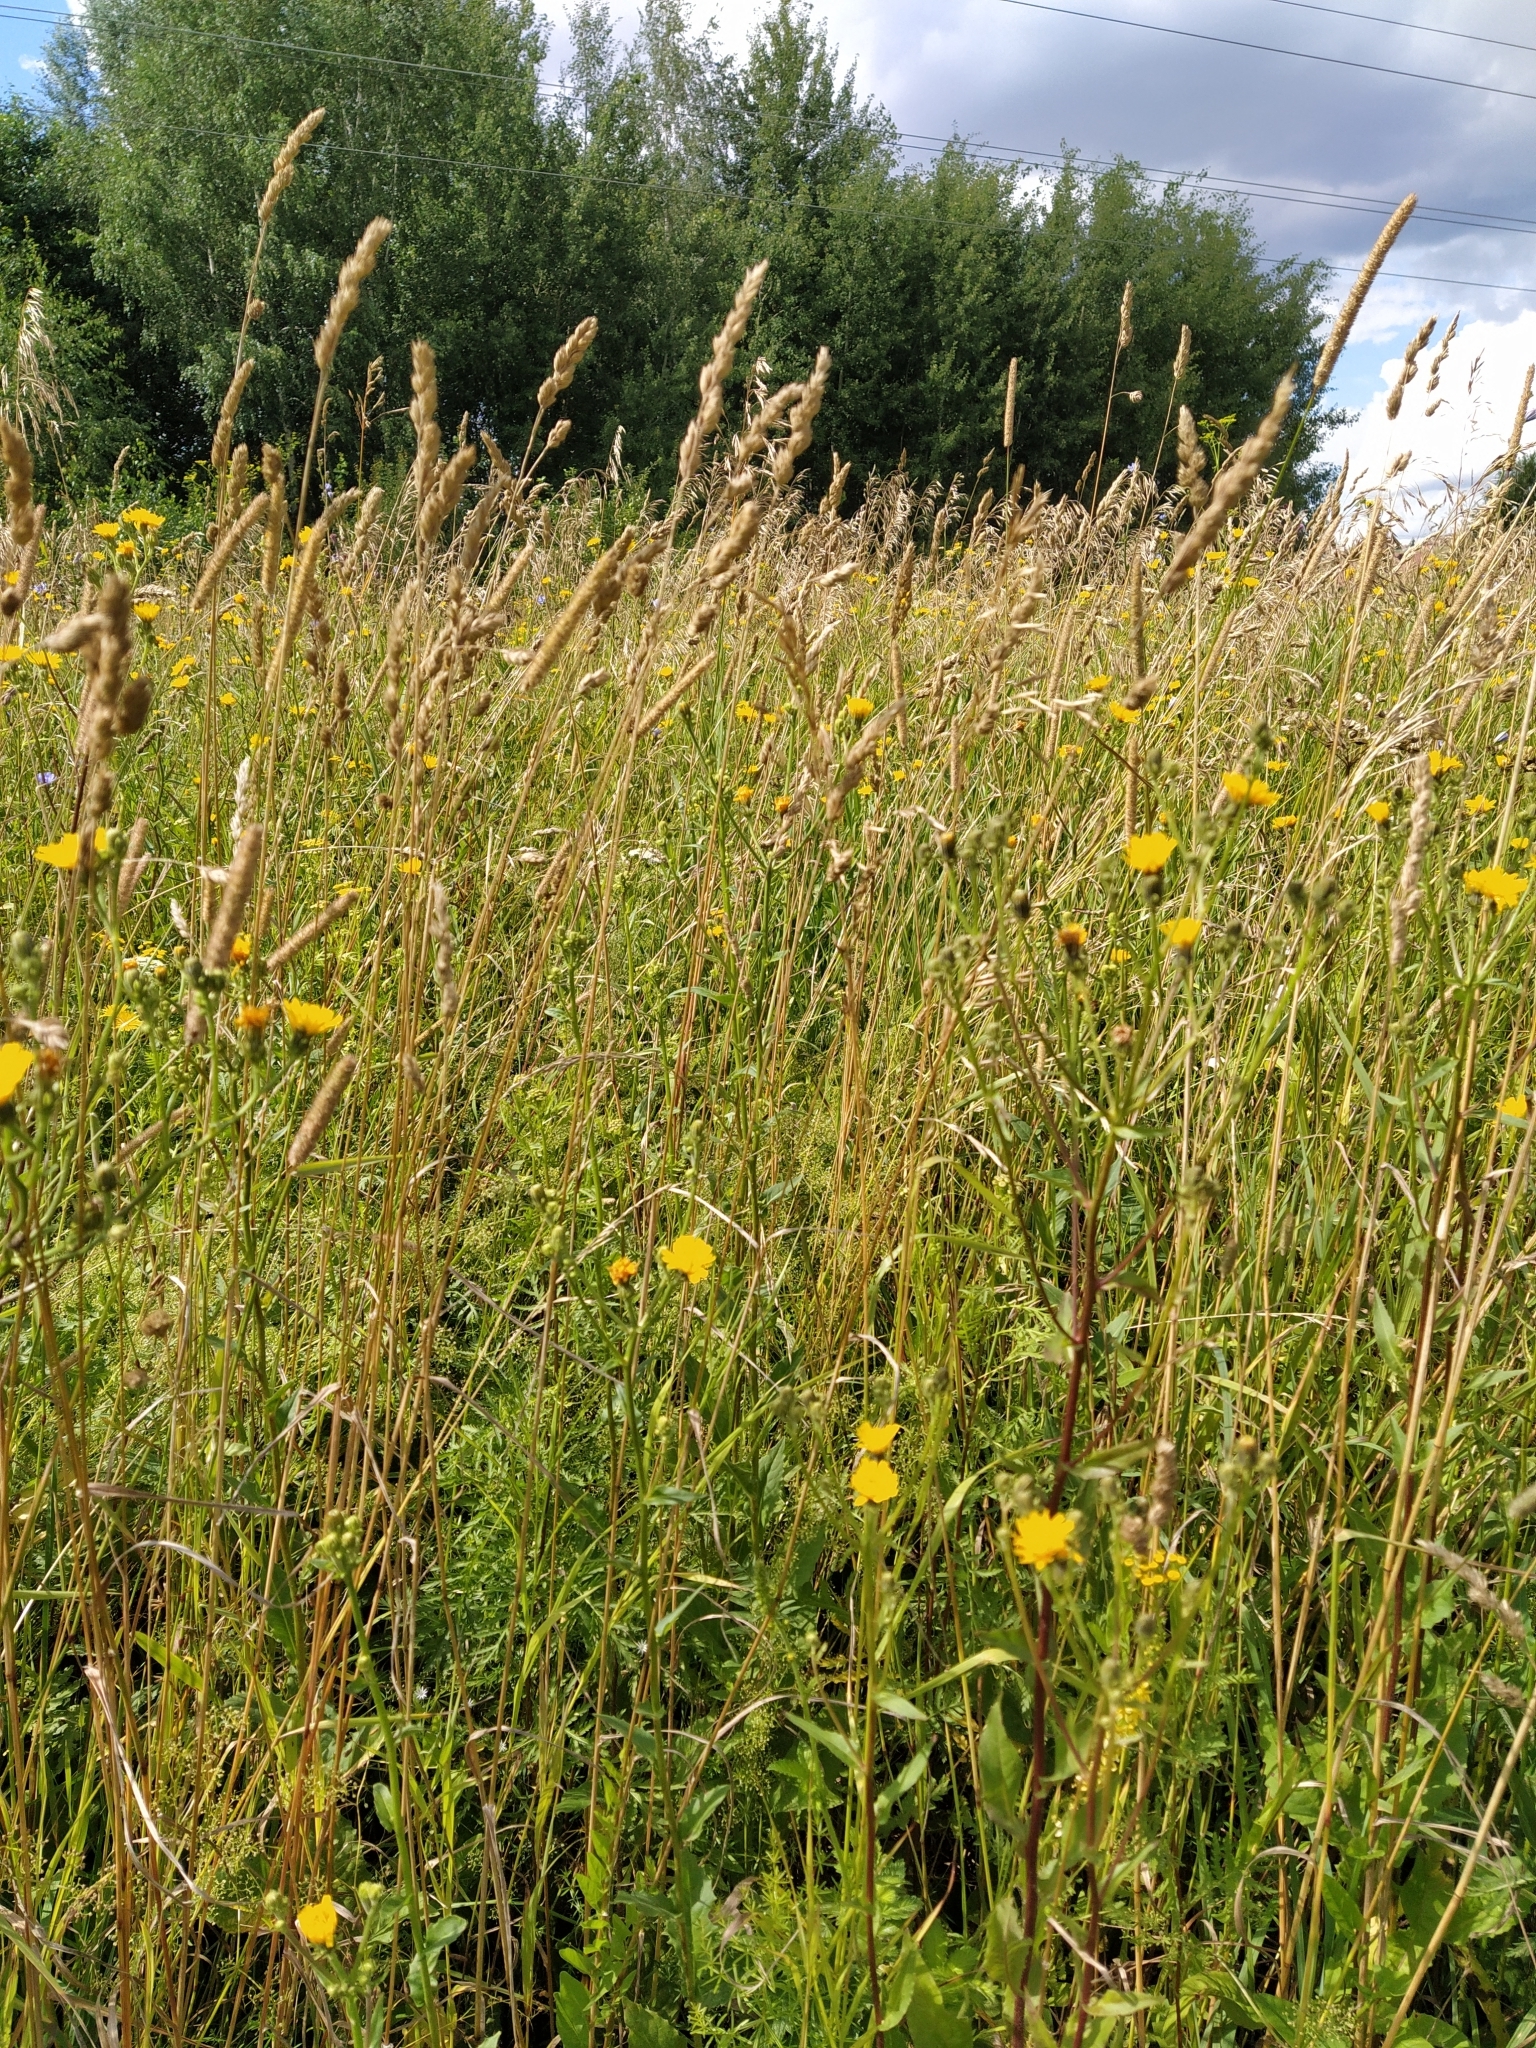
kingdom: Plantae
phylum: Tracheophyta
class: Liliopsida
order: Poales
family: Poaceae
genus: Dactylis
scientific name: Dactylis glomerata
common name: Orchardgrass
